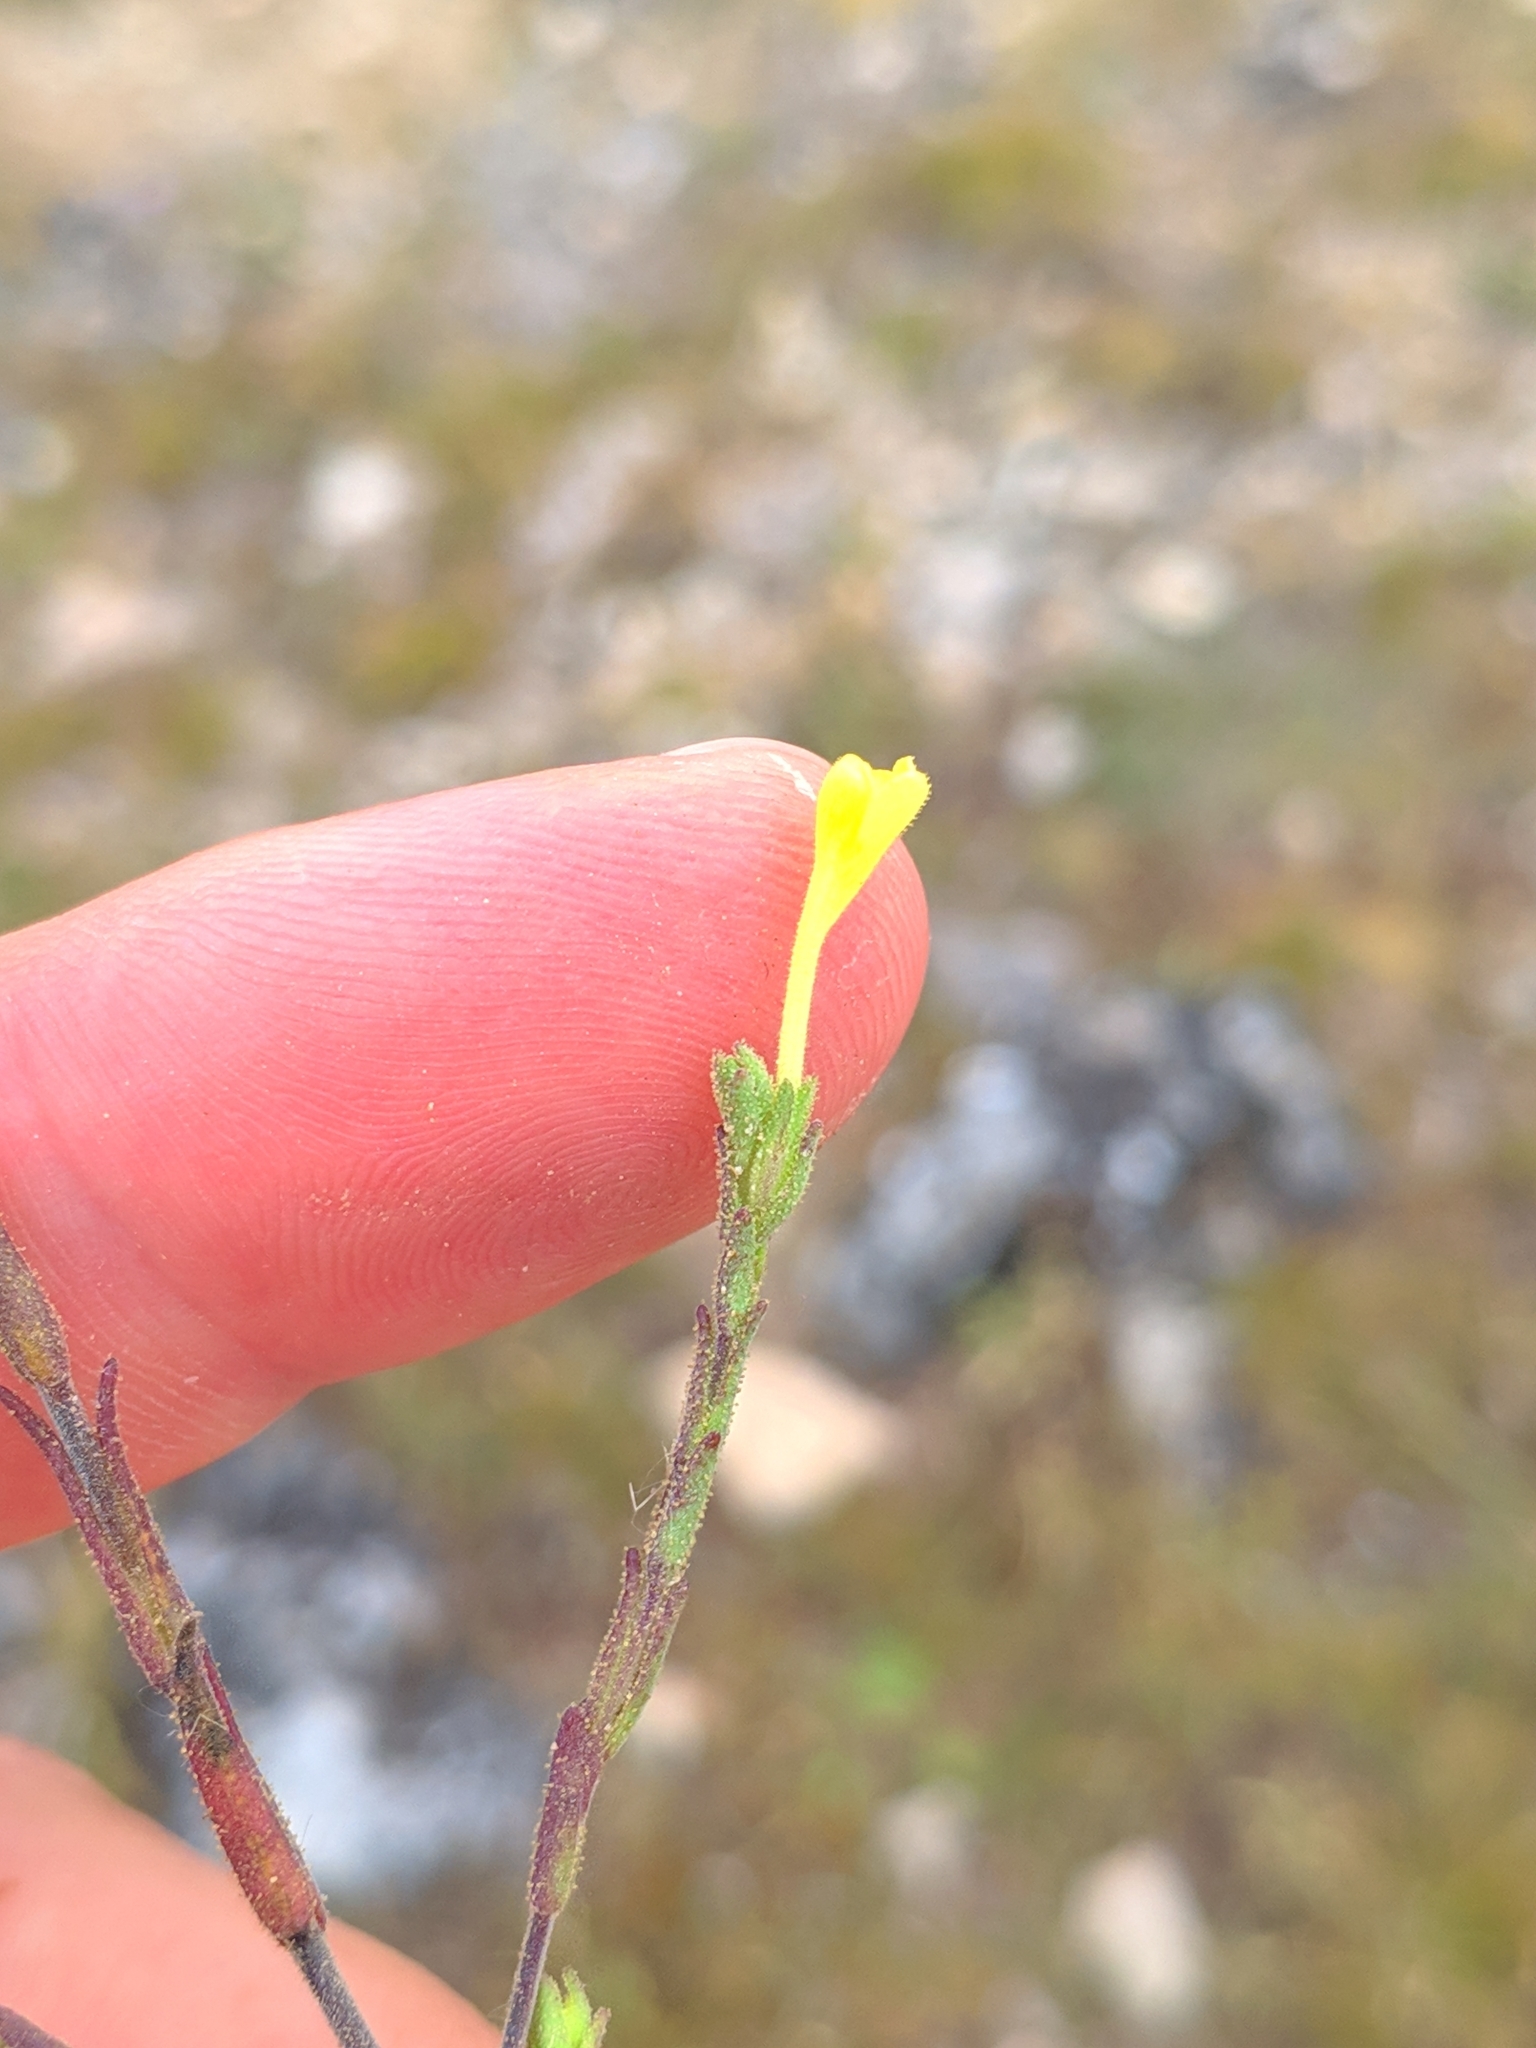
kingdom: Plantae
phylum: Tracheophyta
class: Magnoliopsida
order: Lamiales
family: Orobanchaceae
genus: Odontites
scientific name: Odontites longiflorus
